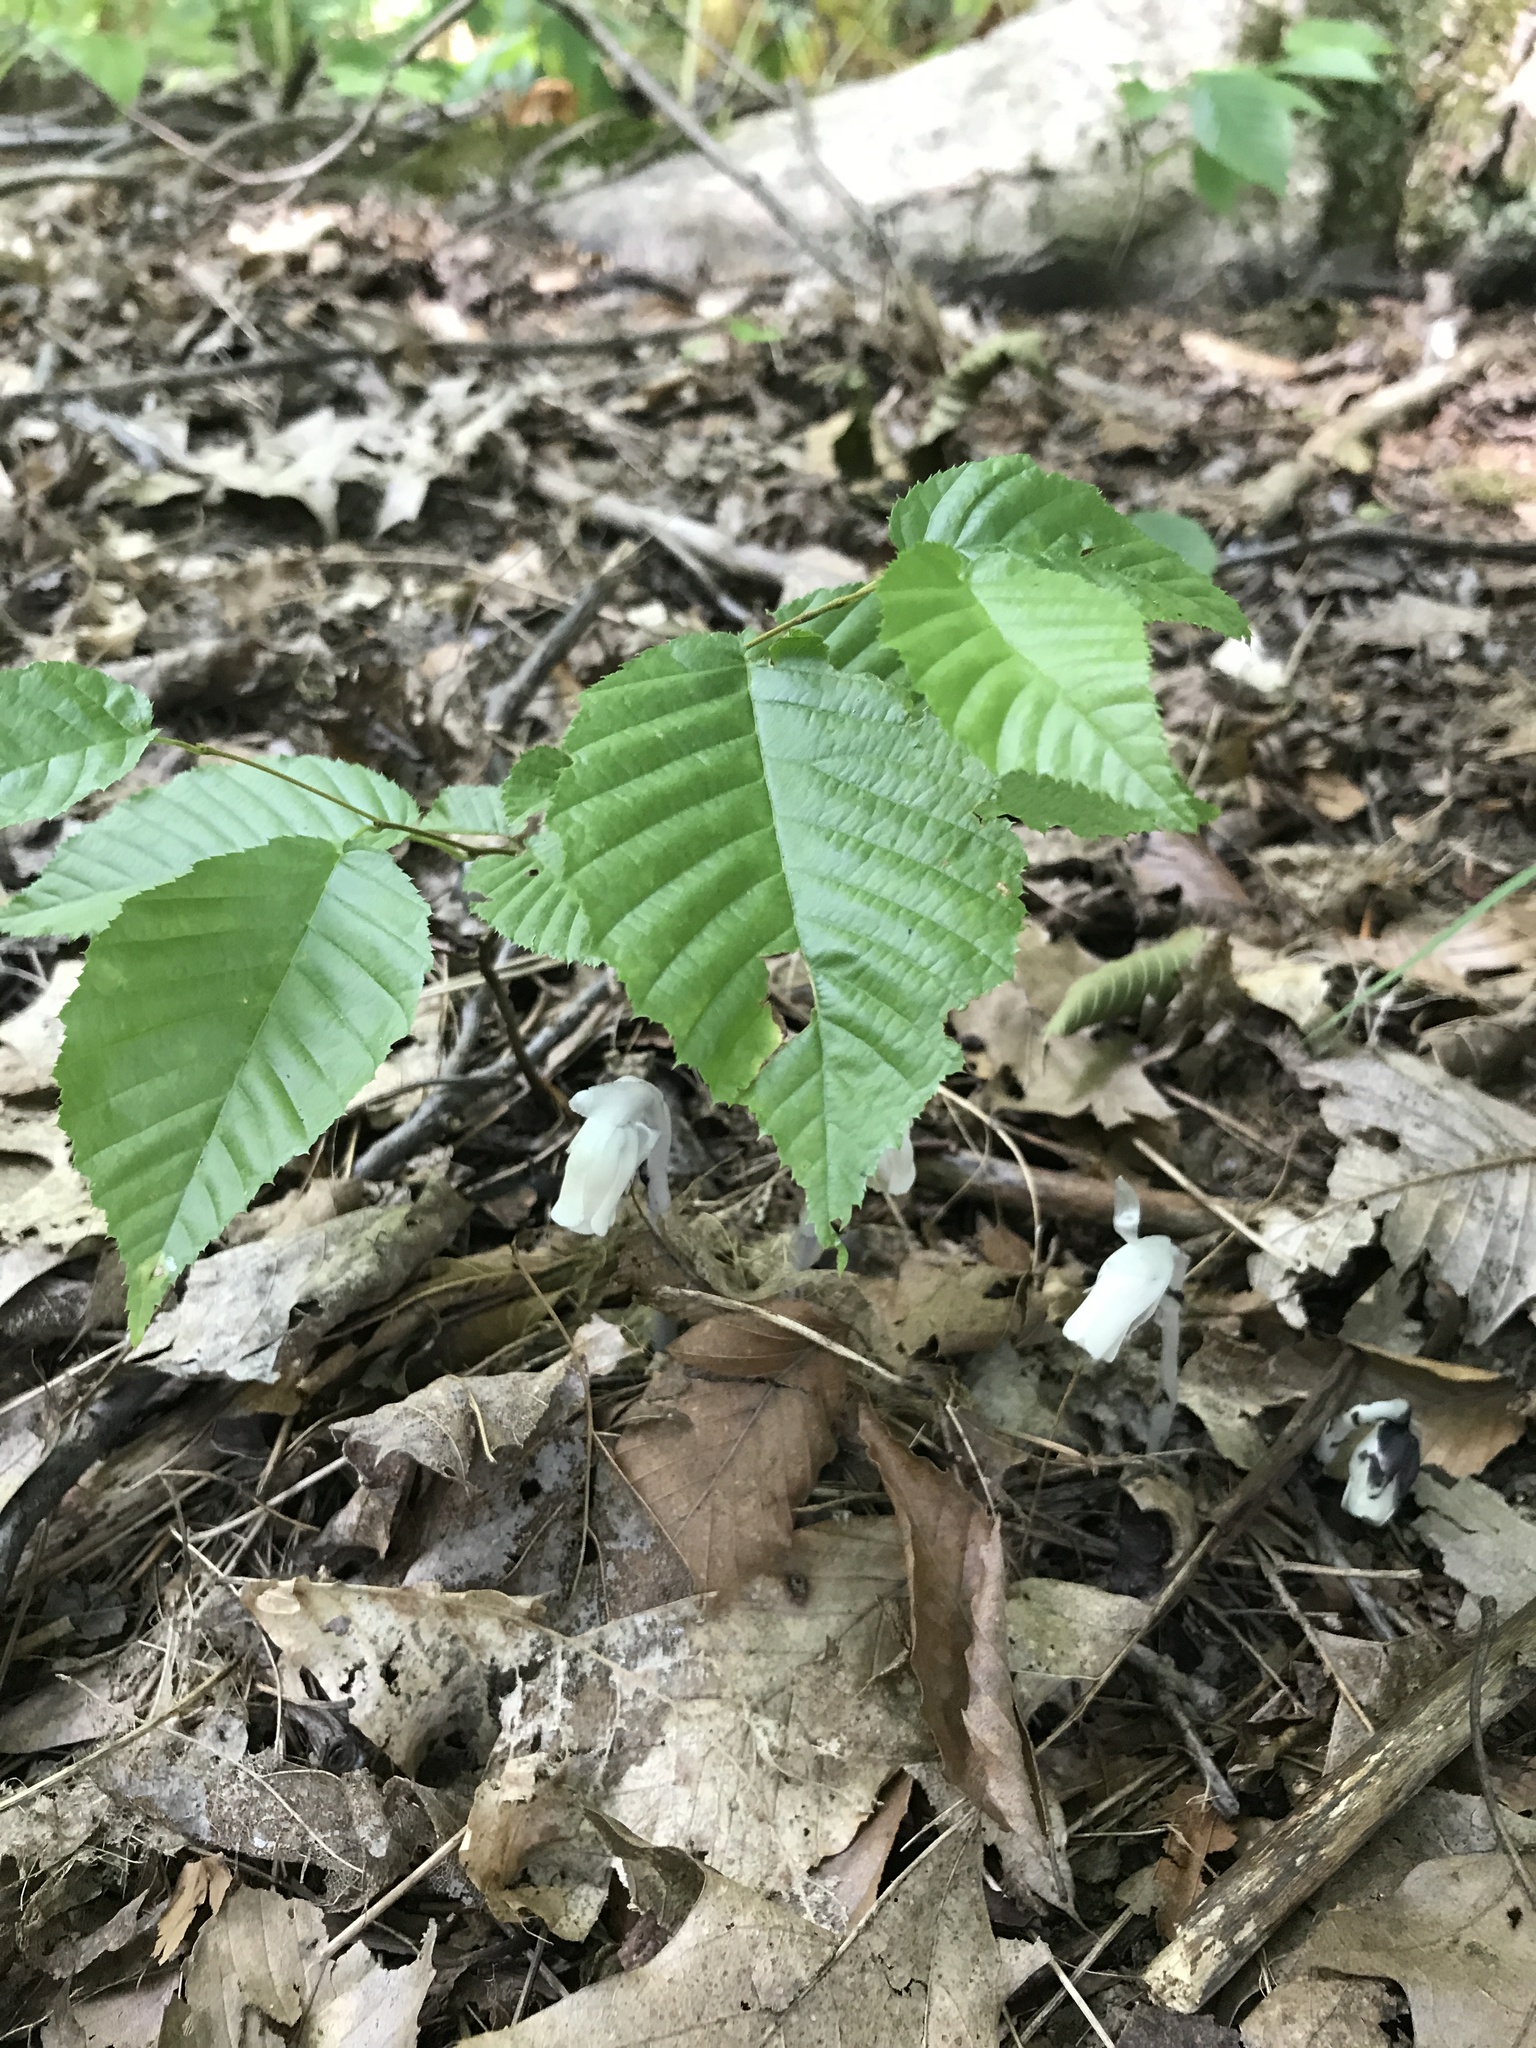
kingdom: Plantae
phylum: Tracheophyta
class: Magnoliopsida
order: Ericales
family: Ericaceae
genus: Monotropa
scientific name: Monotropa uniflora
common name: Convulsion root
